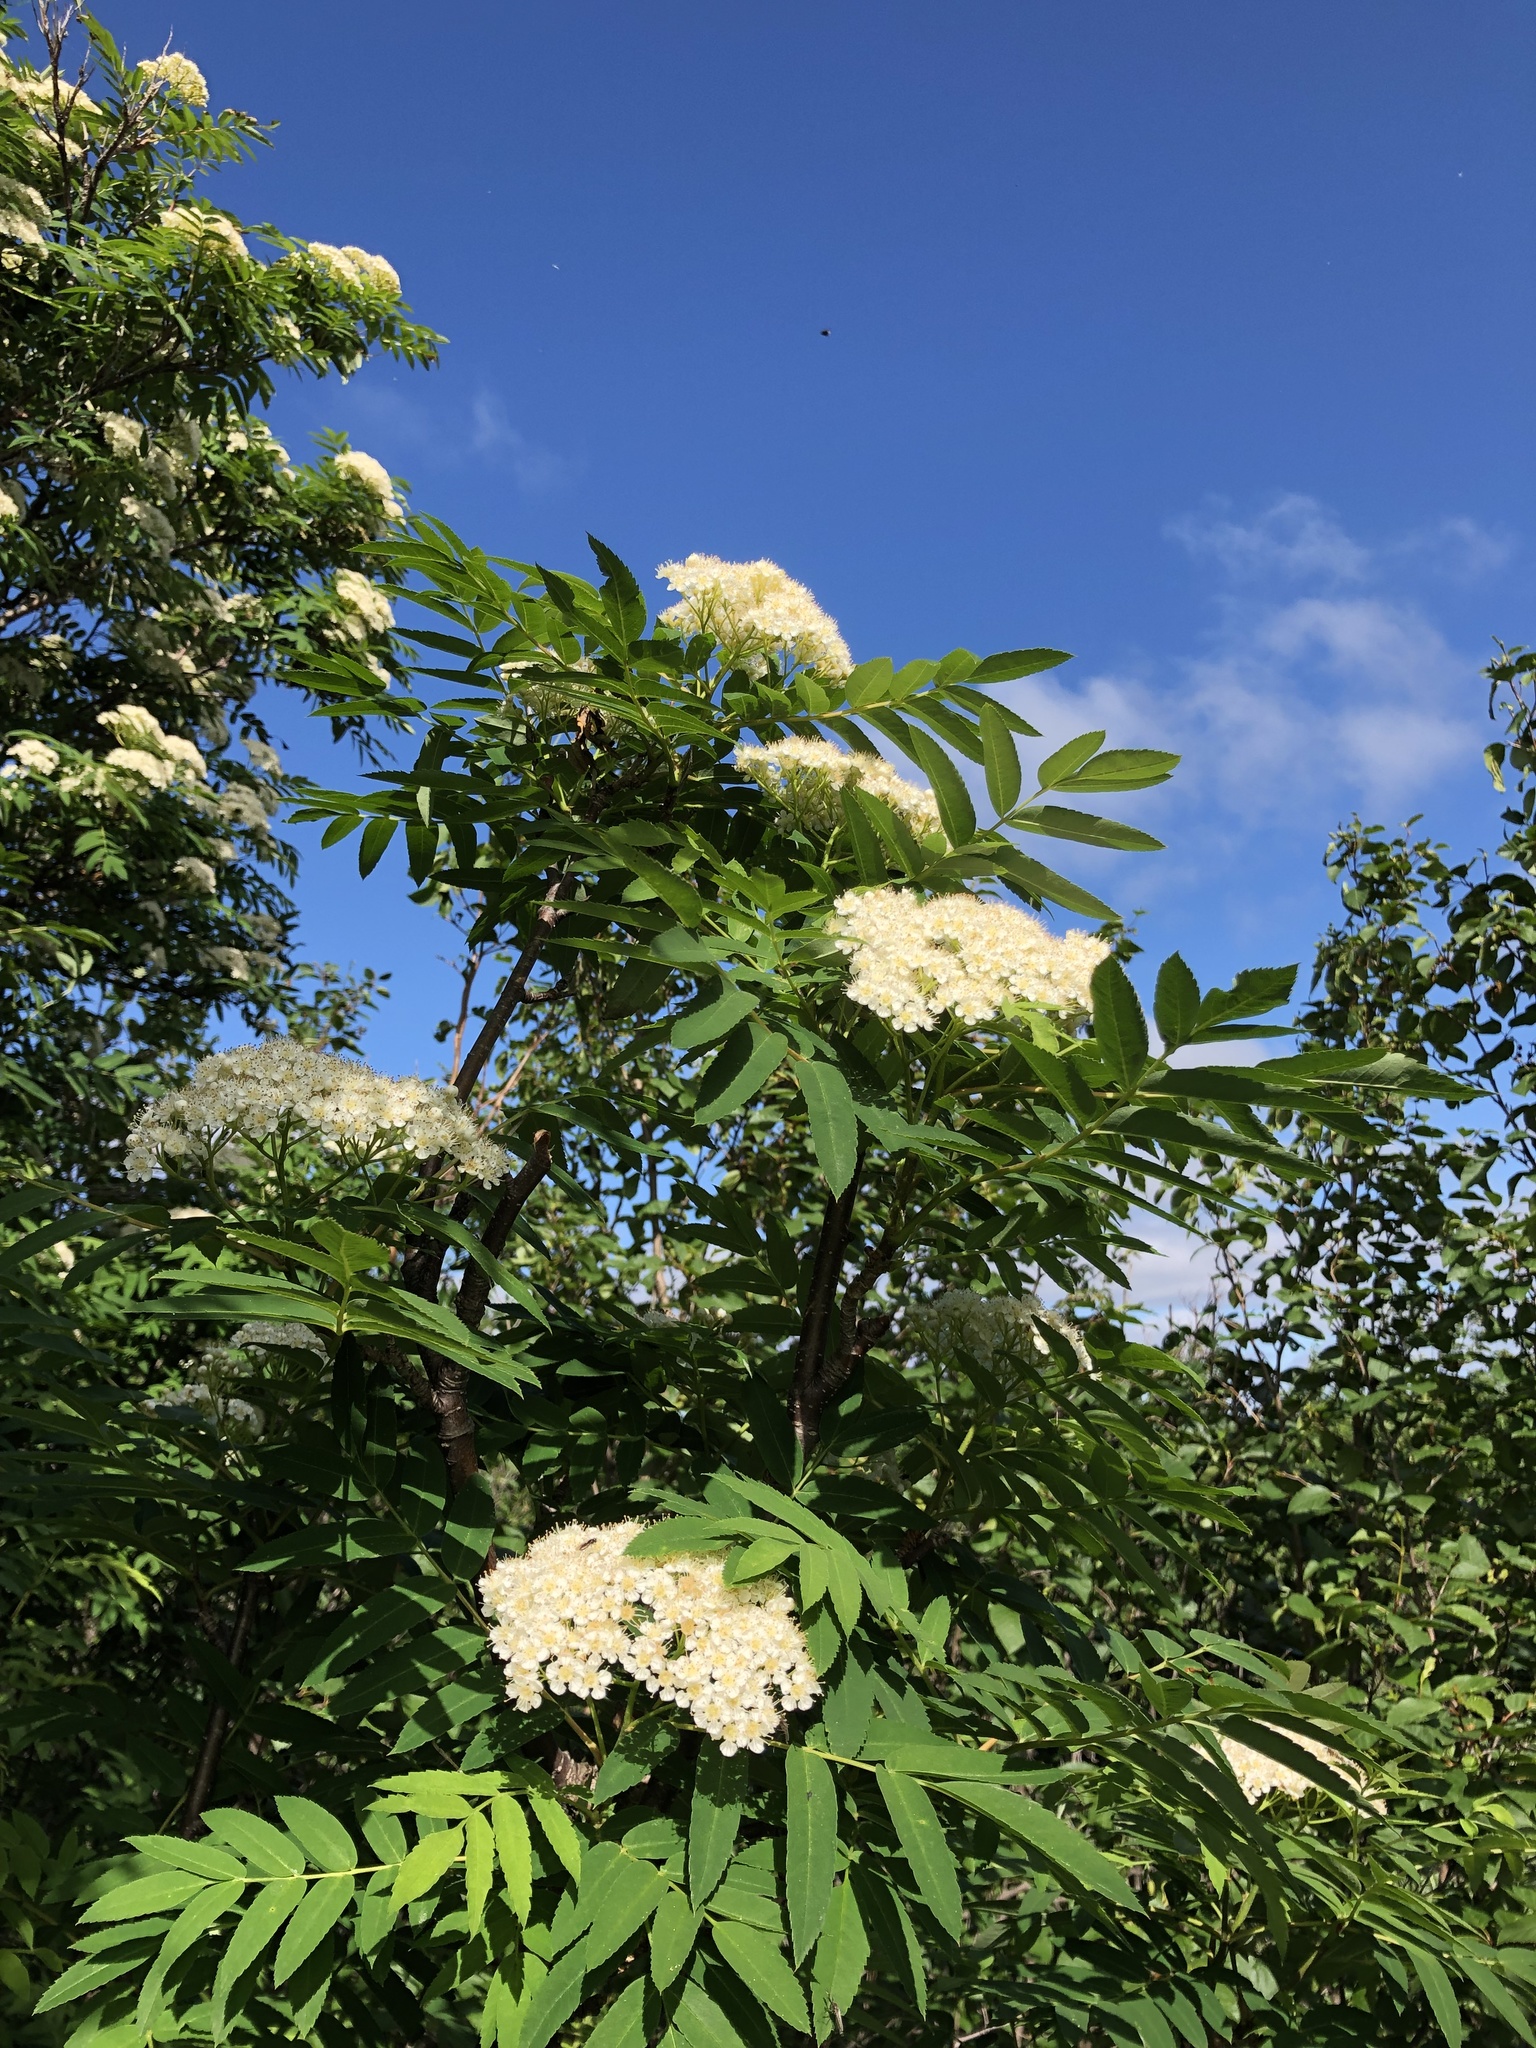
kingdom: Plantae
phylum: Tracheophyta
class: Magnoliopsida
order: Rosales
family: Rosaceae
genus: Sorbus
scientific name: Sorbus aucuparia
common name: Rowan
